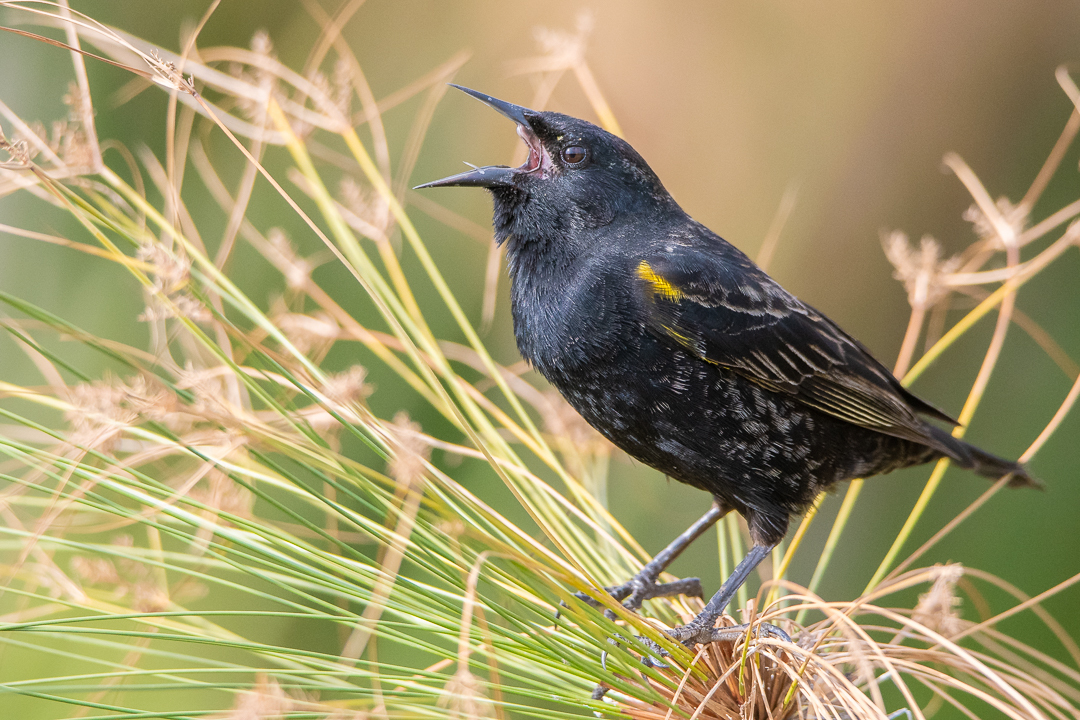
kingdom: Animalia
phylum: Chordata
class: Aves
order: Passeriformes
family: Icteridae
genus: Agelasticus
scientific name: Agelasticus thilius
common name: Yellow-winged blackbird
